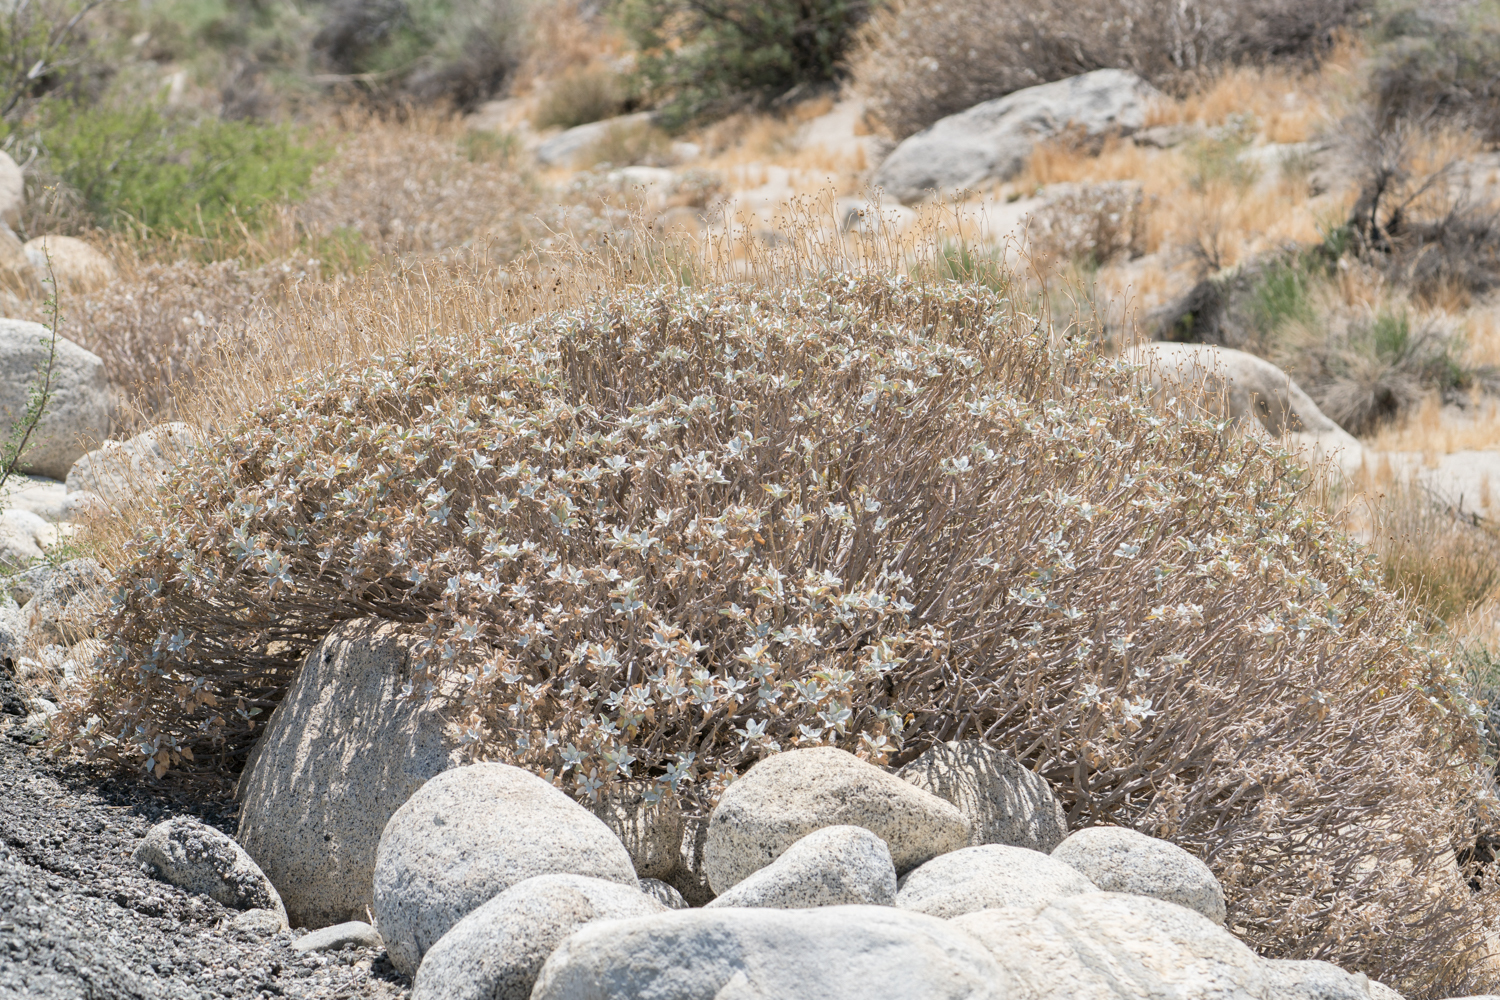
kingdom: Plantae
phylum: Tracheophyta
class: Magnoliopsida
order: Asterales
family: Asteraceae
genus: Encelia
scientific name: Encelia farinosa
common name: Brittlebush
